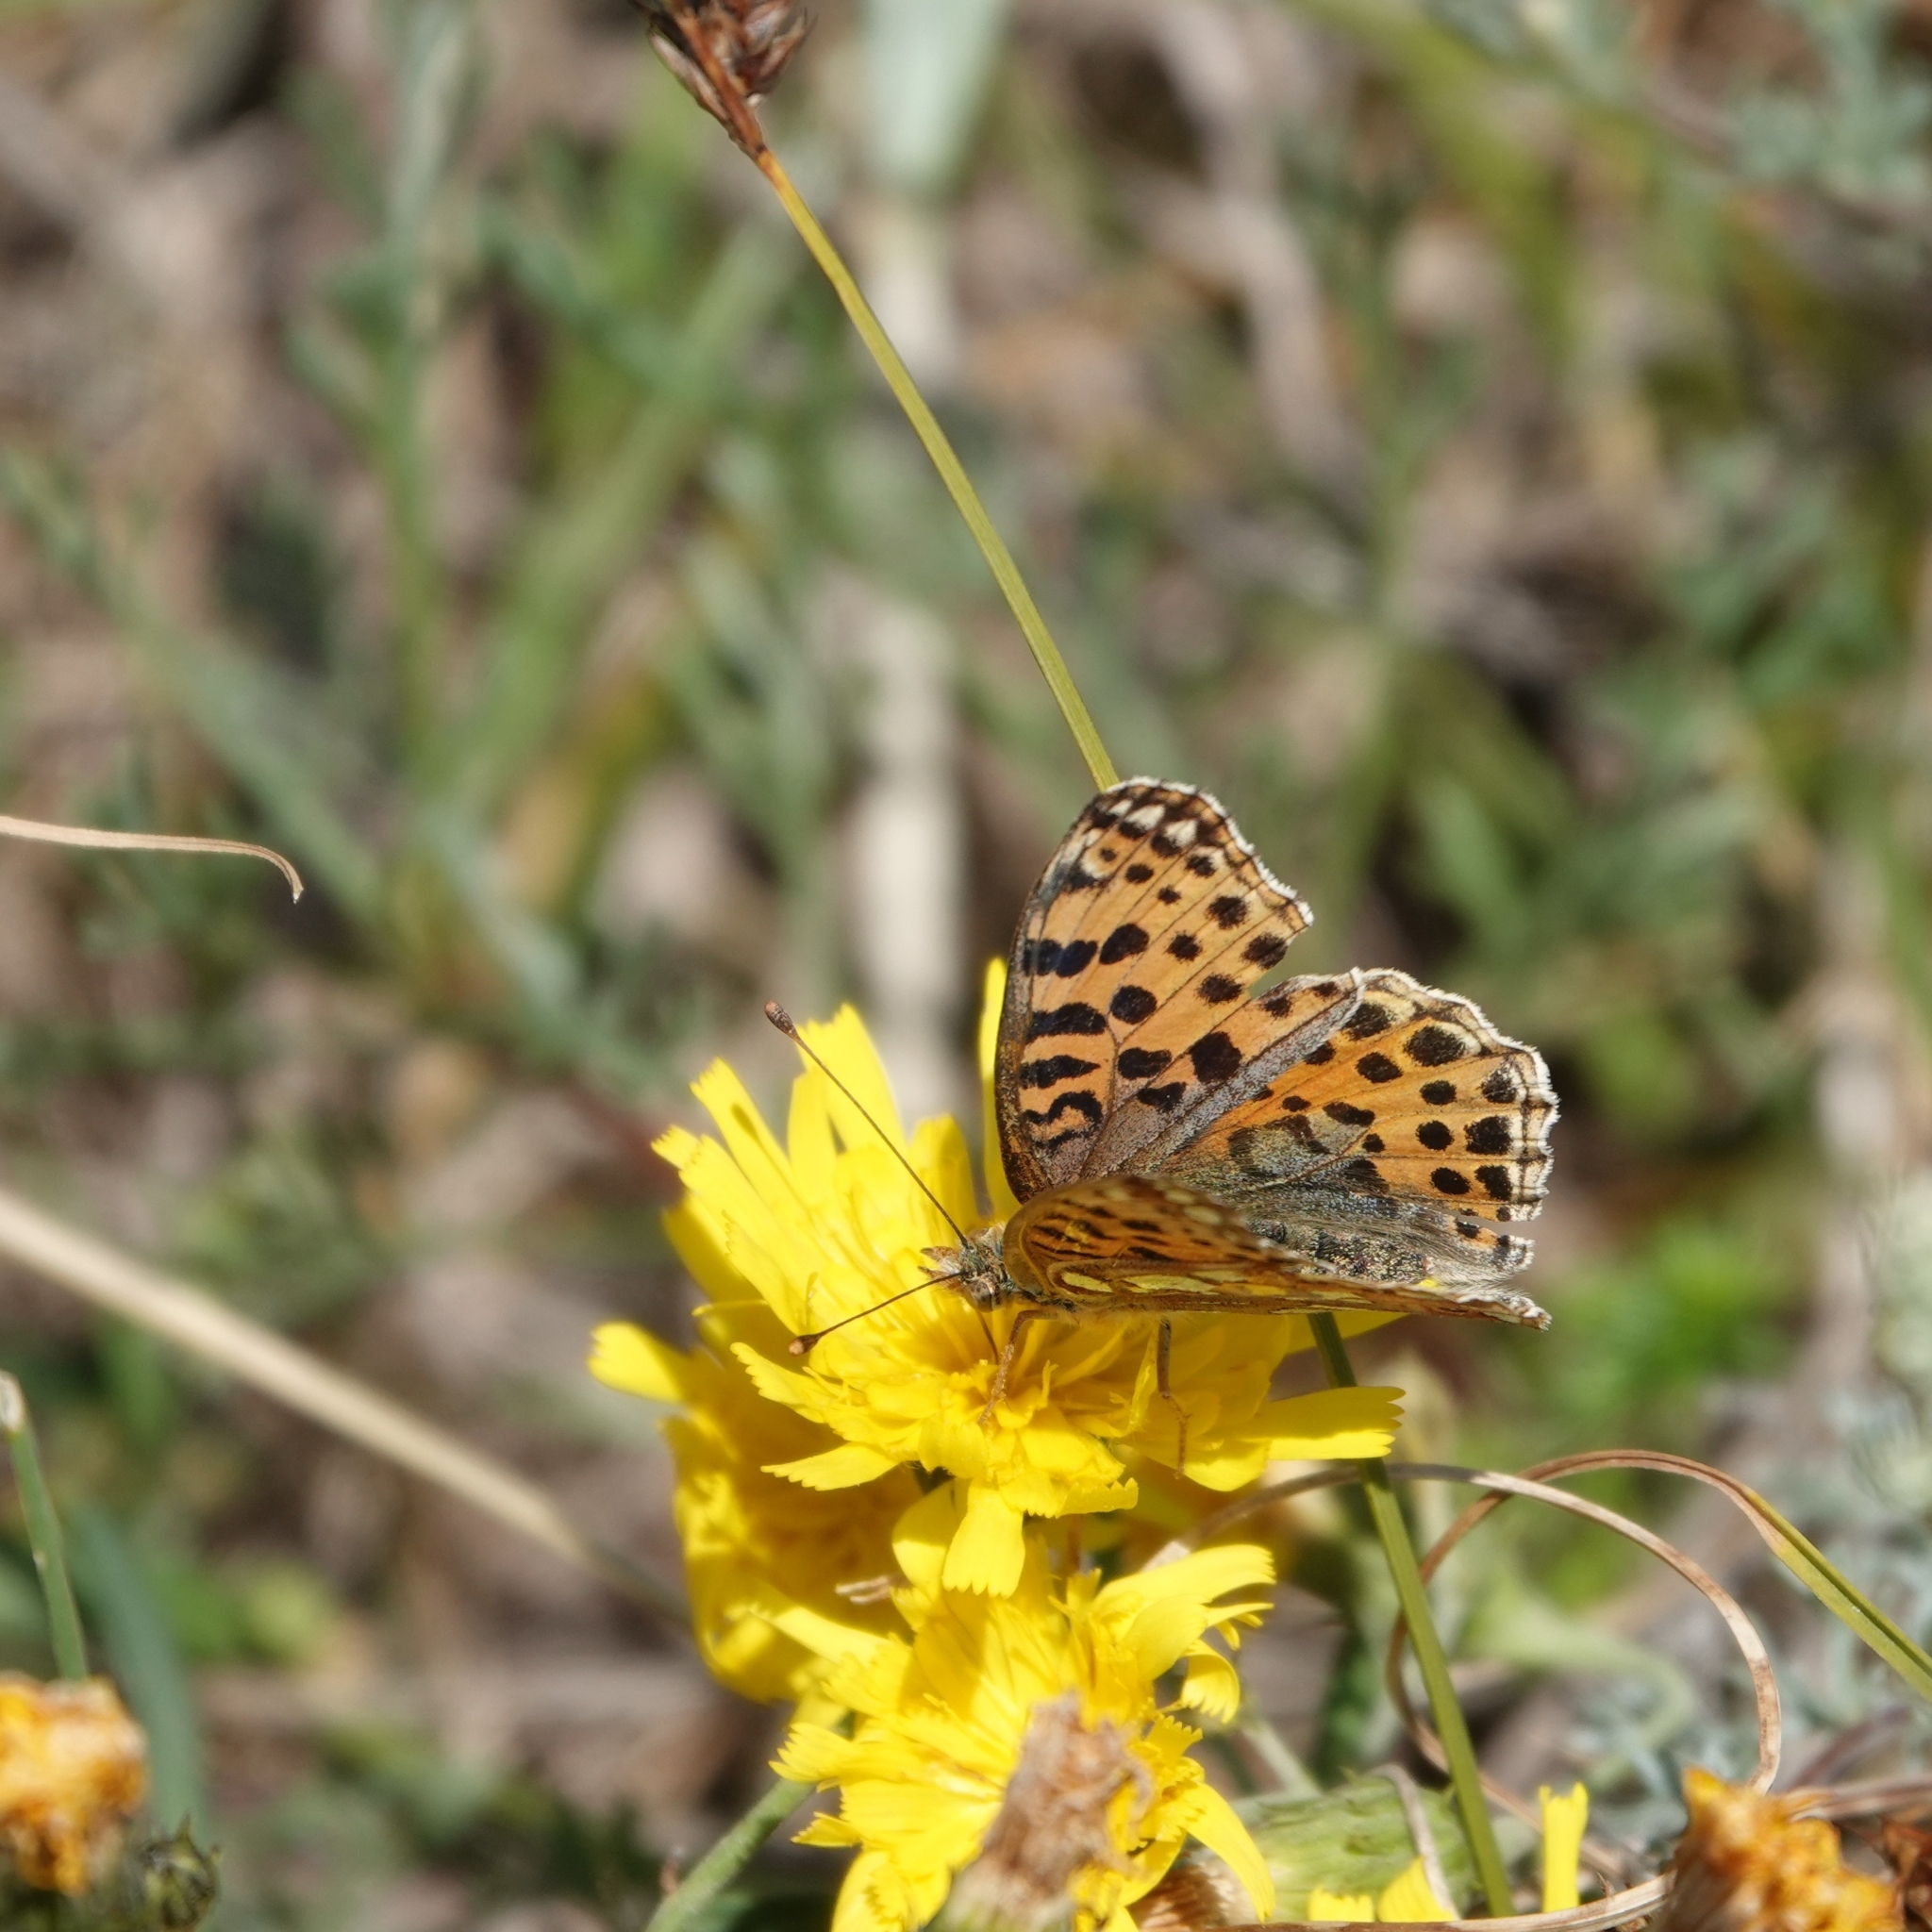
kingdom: Animalia
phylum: Arthropoda
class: Insecta
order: Lepidoptera
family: Nymphalidae
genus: Issoria
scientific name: Issoria lathonia
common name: Queen of spain fritillary
